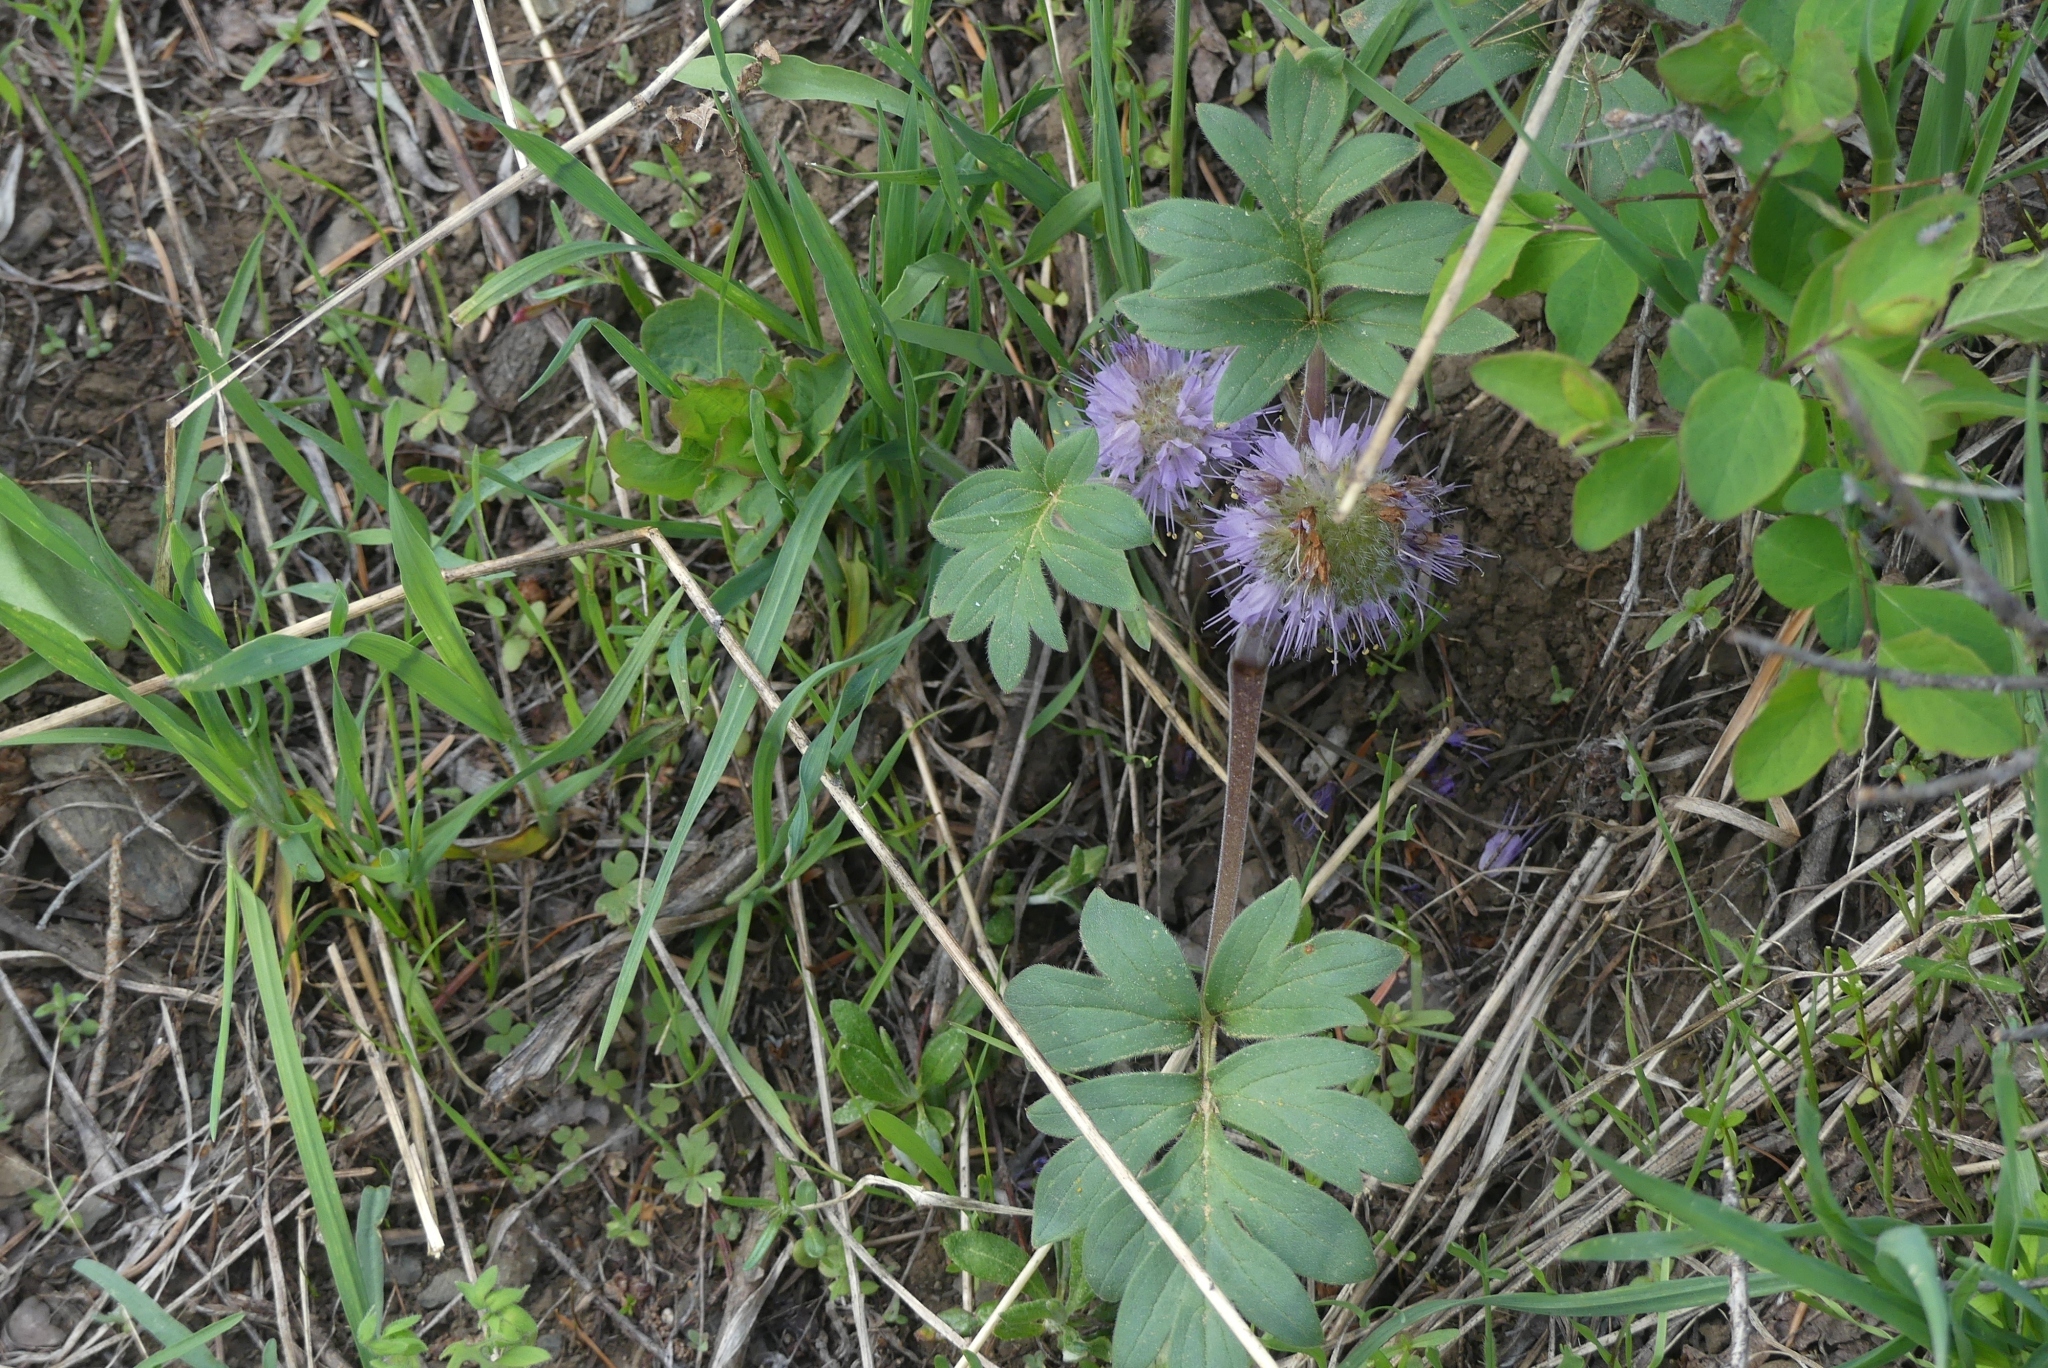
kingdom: Plantae
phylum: Tracheophyta
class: Magnoliopsida
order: Boraginales
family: Hydrophyllaceae
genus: Hydrophyllum
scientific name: Hydrophyllum capitatum
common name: Woollen-breeches
